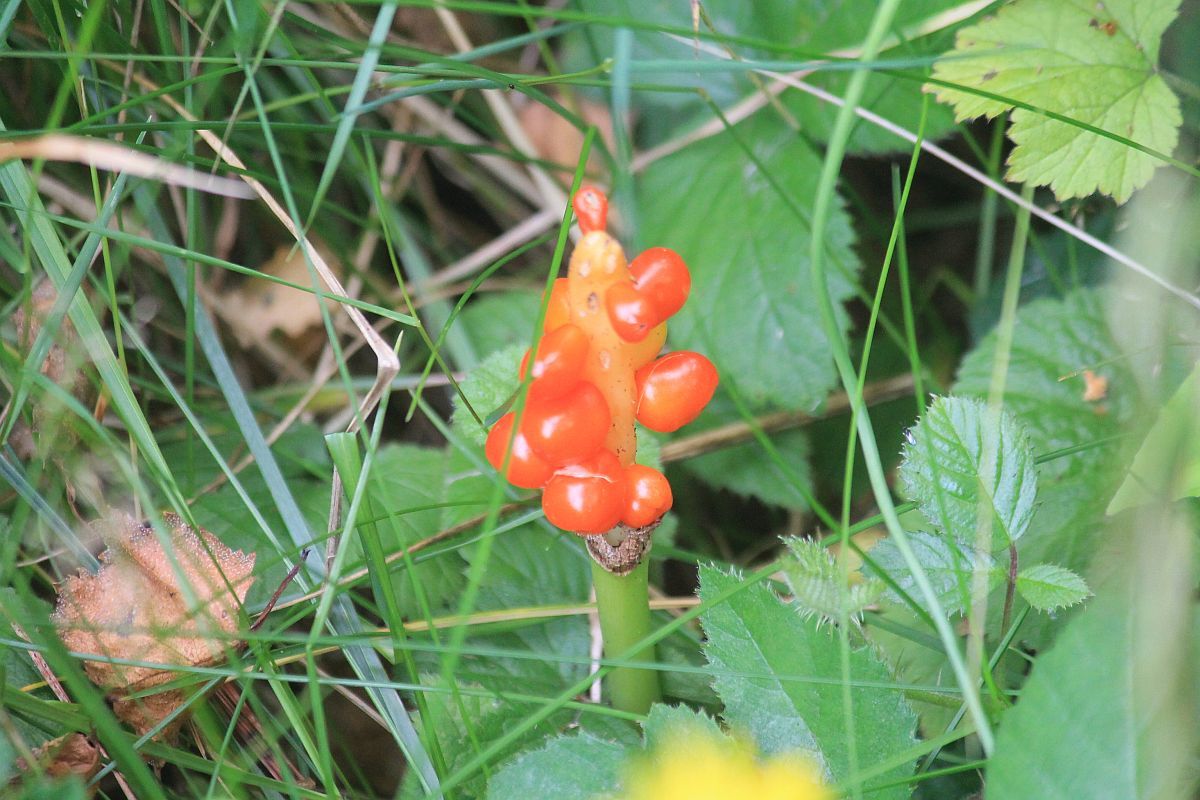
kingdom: Plantae
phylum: Tracheophyta
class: Liliopsida
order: Alismatales
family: Araceae
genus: Arum
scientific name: Arum maculatum
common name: Lords-and-ladies
